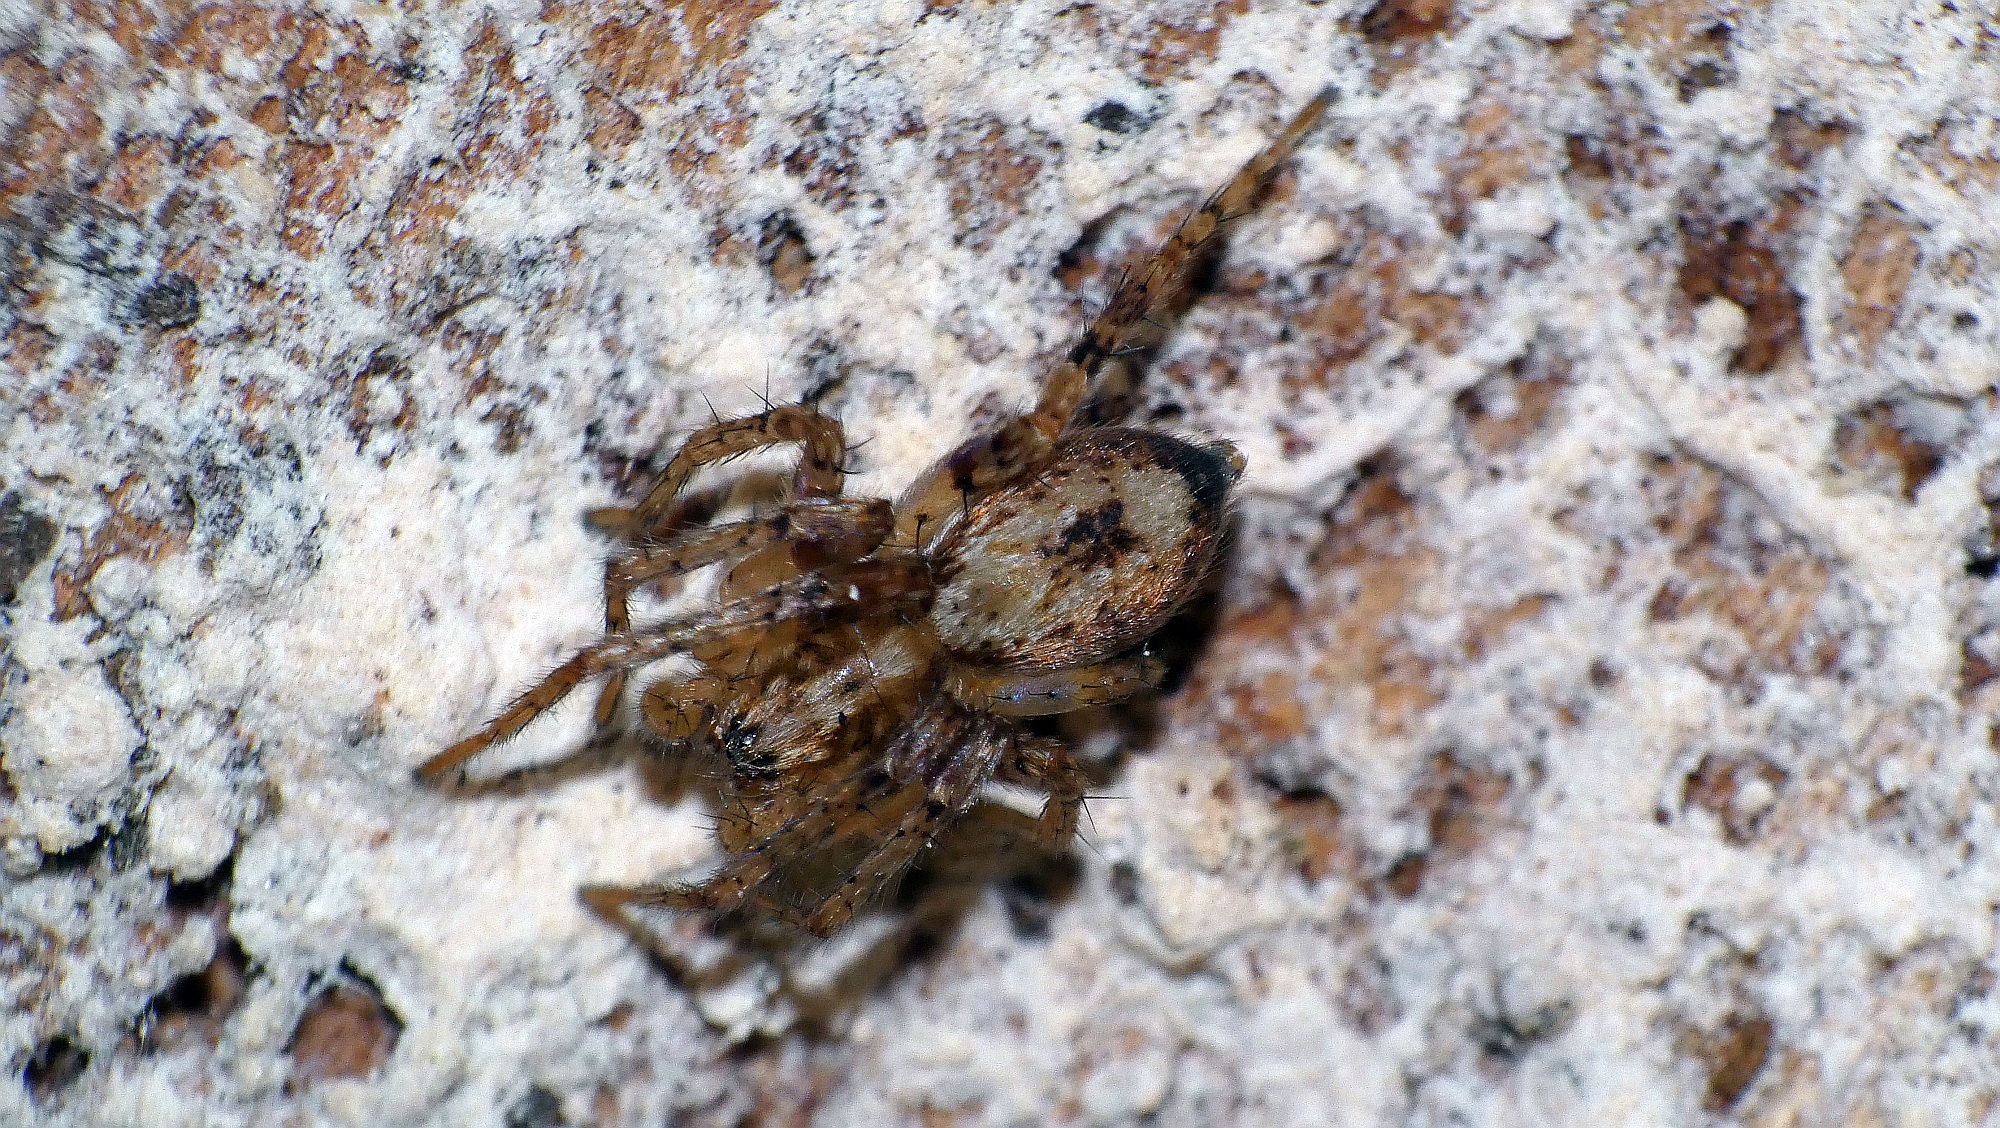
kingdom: Animalia
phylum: Arthropoda
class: Arachnida
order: Araneae
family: Anyphaenidae
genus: Anyphaena
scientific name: Anyphaena accentuata
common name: Buzzing spider
